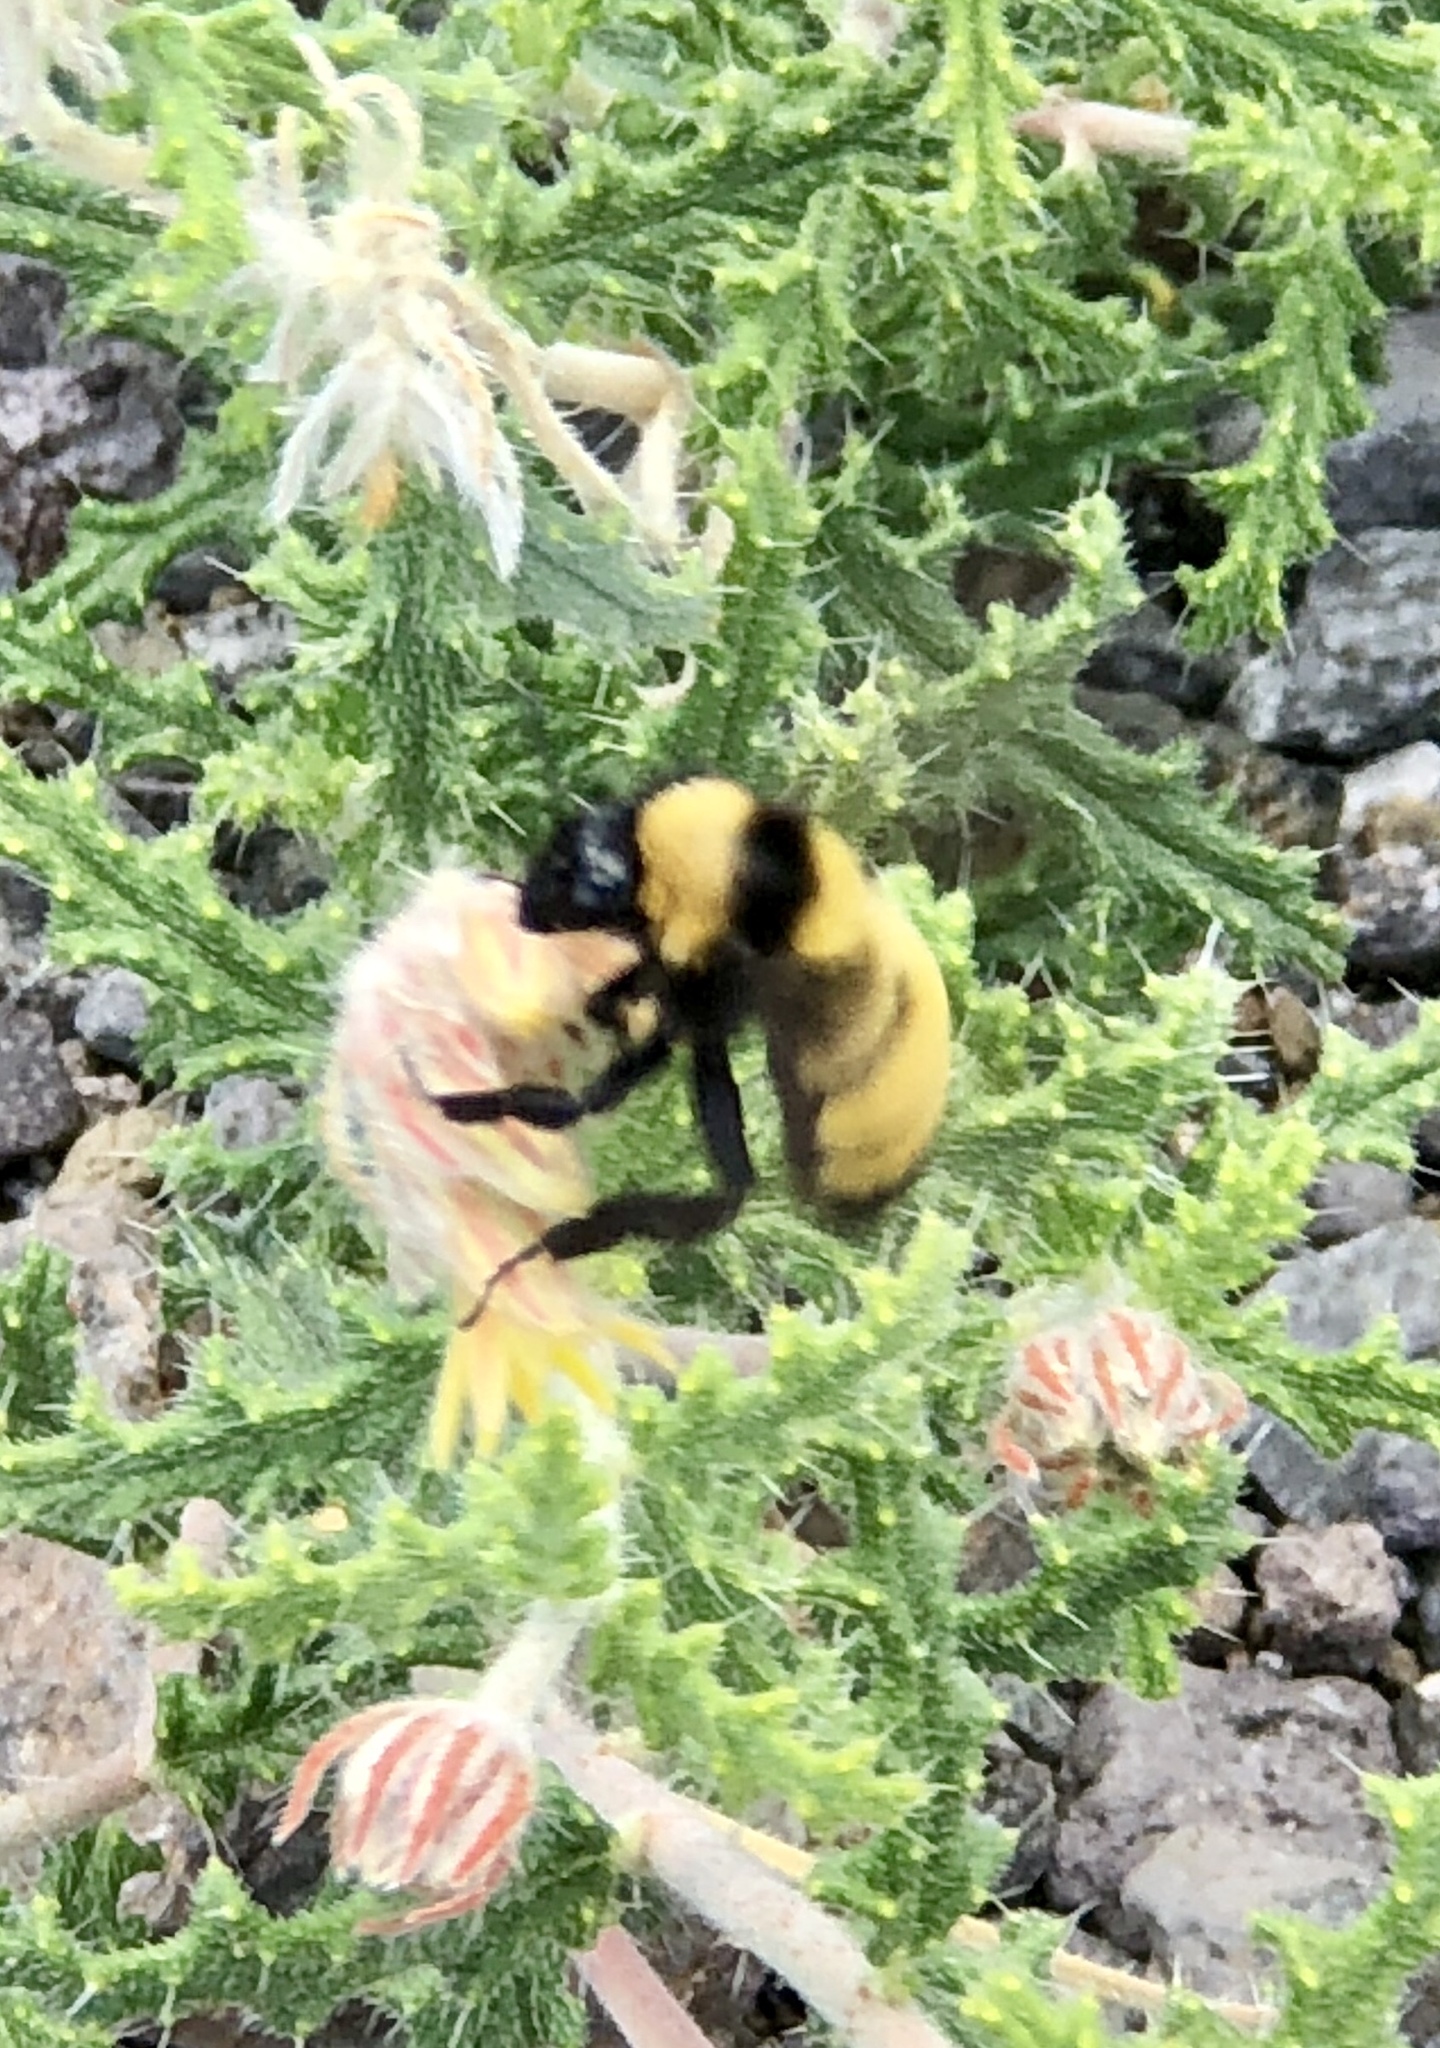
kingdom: Animalia
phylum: Arthropoda
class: Insecta
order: Hymenoptera
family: Apidae
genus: Bombus
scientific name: Bombus sonorus
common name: Sonoran bumble bee
